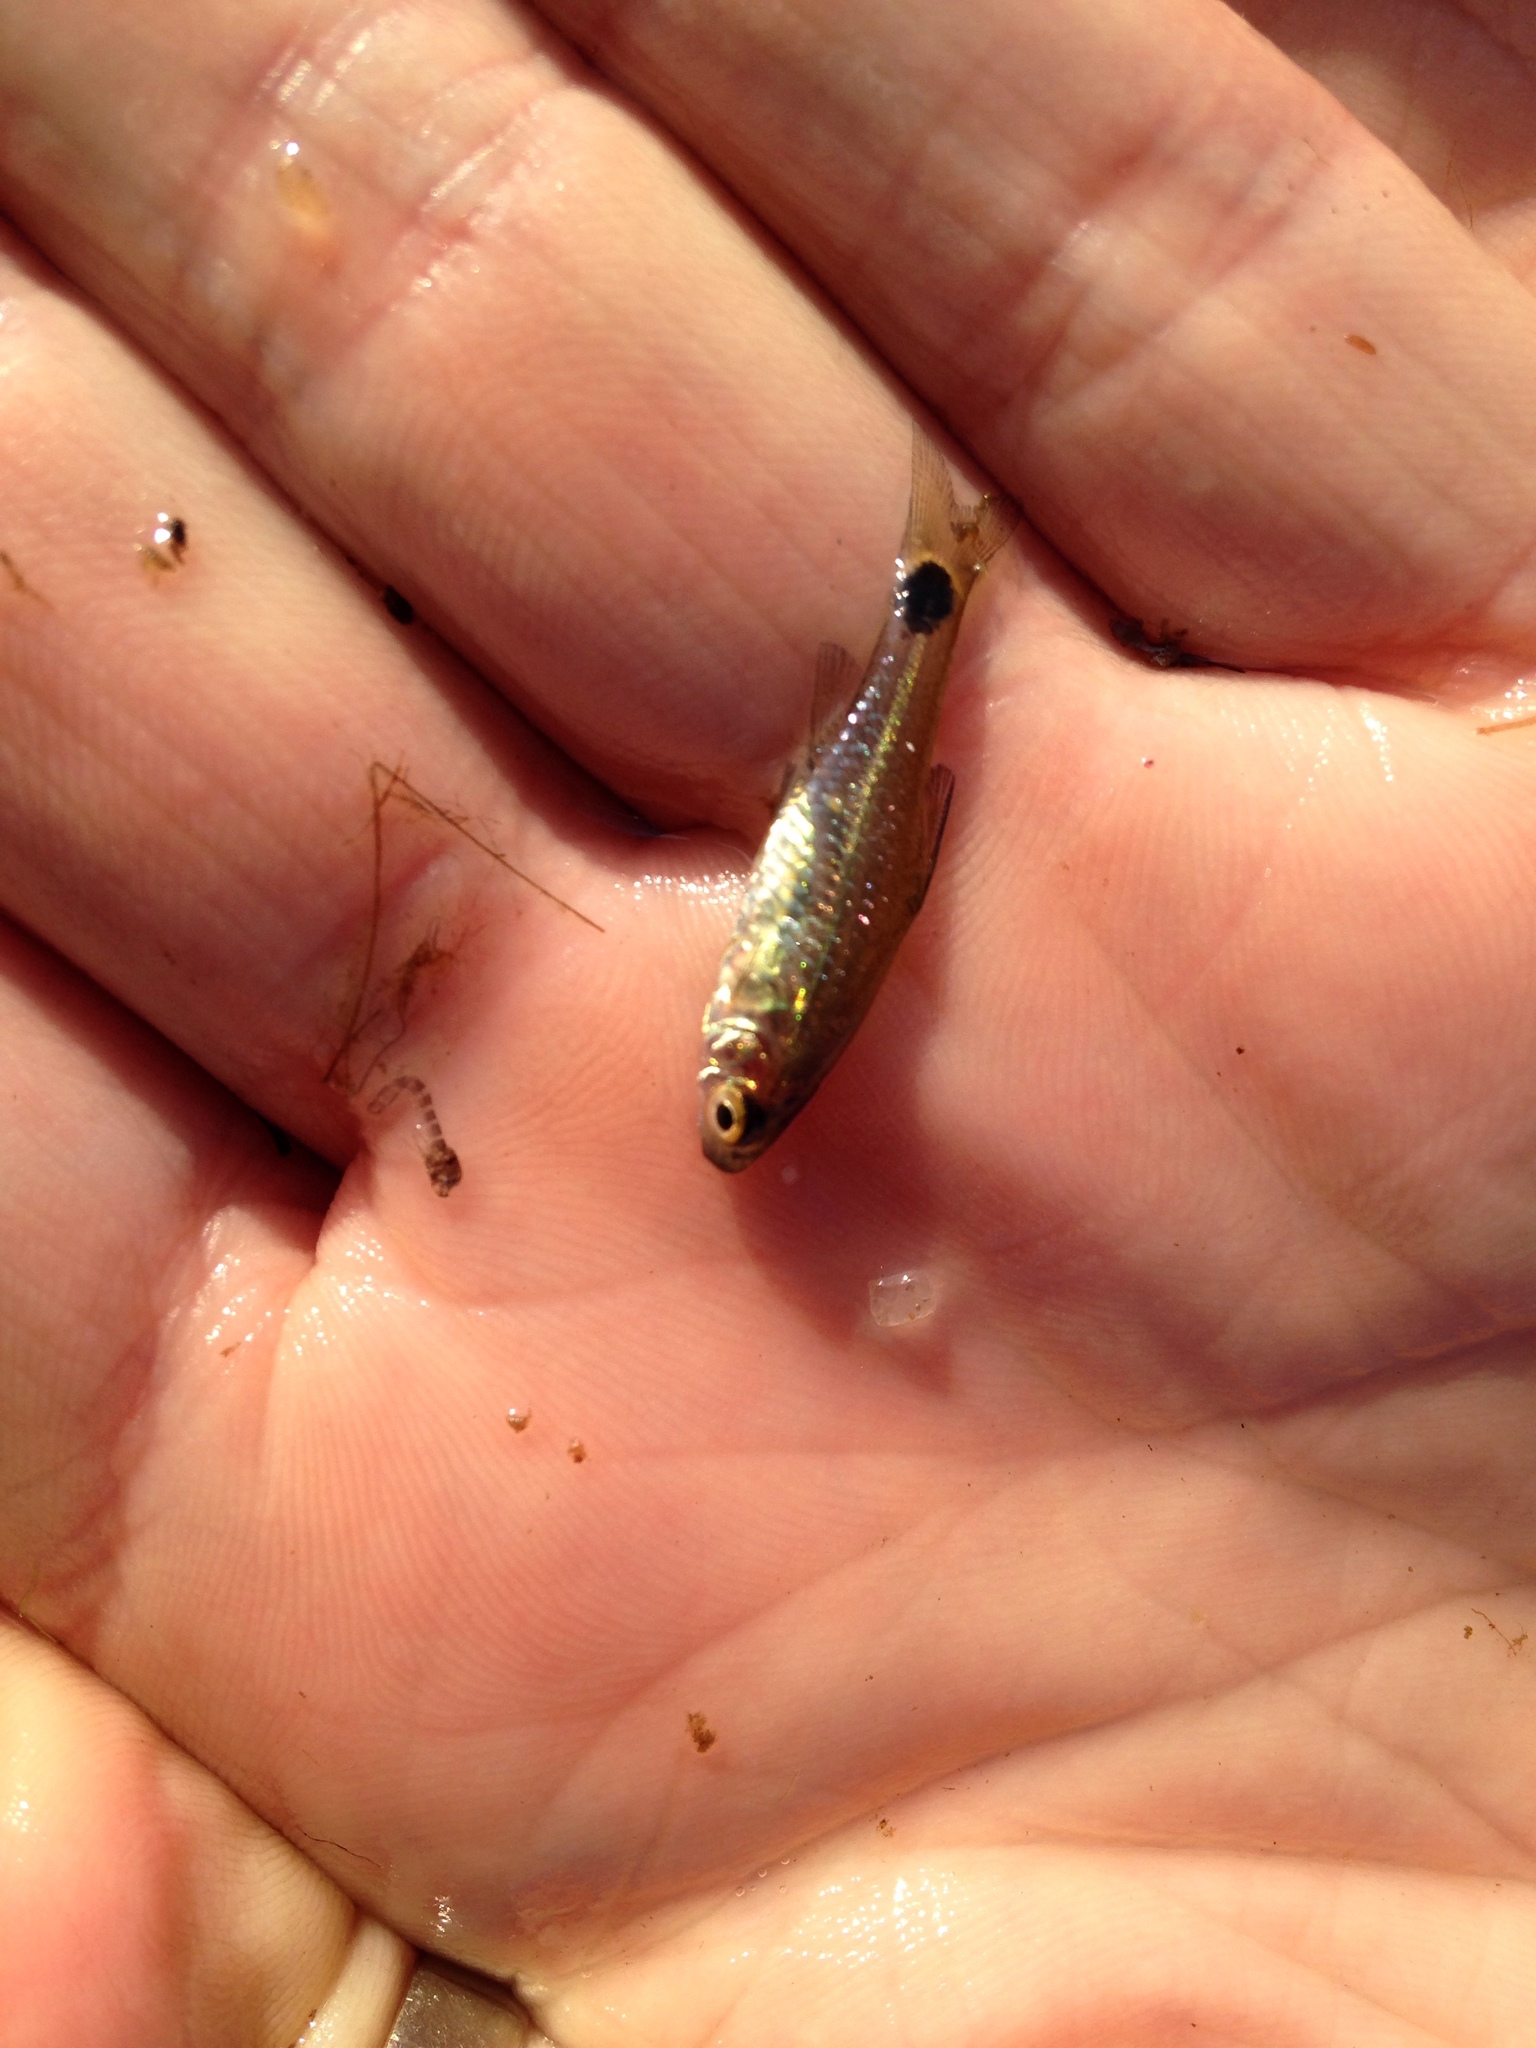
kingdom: Animalia
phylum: Chordata
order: Cypriniformes
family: Cyprinidae
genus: Enteromius
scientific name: Enteromius afrovernayi
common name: Spottail barb
